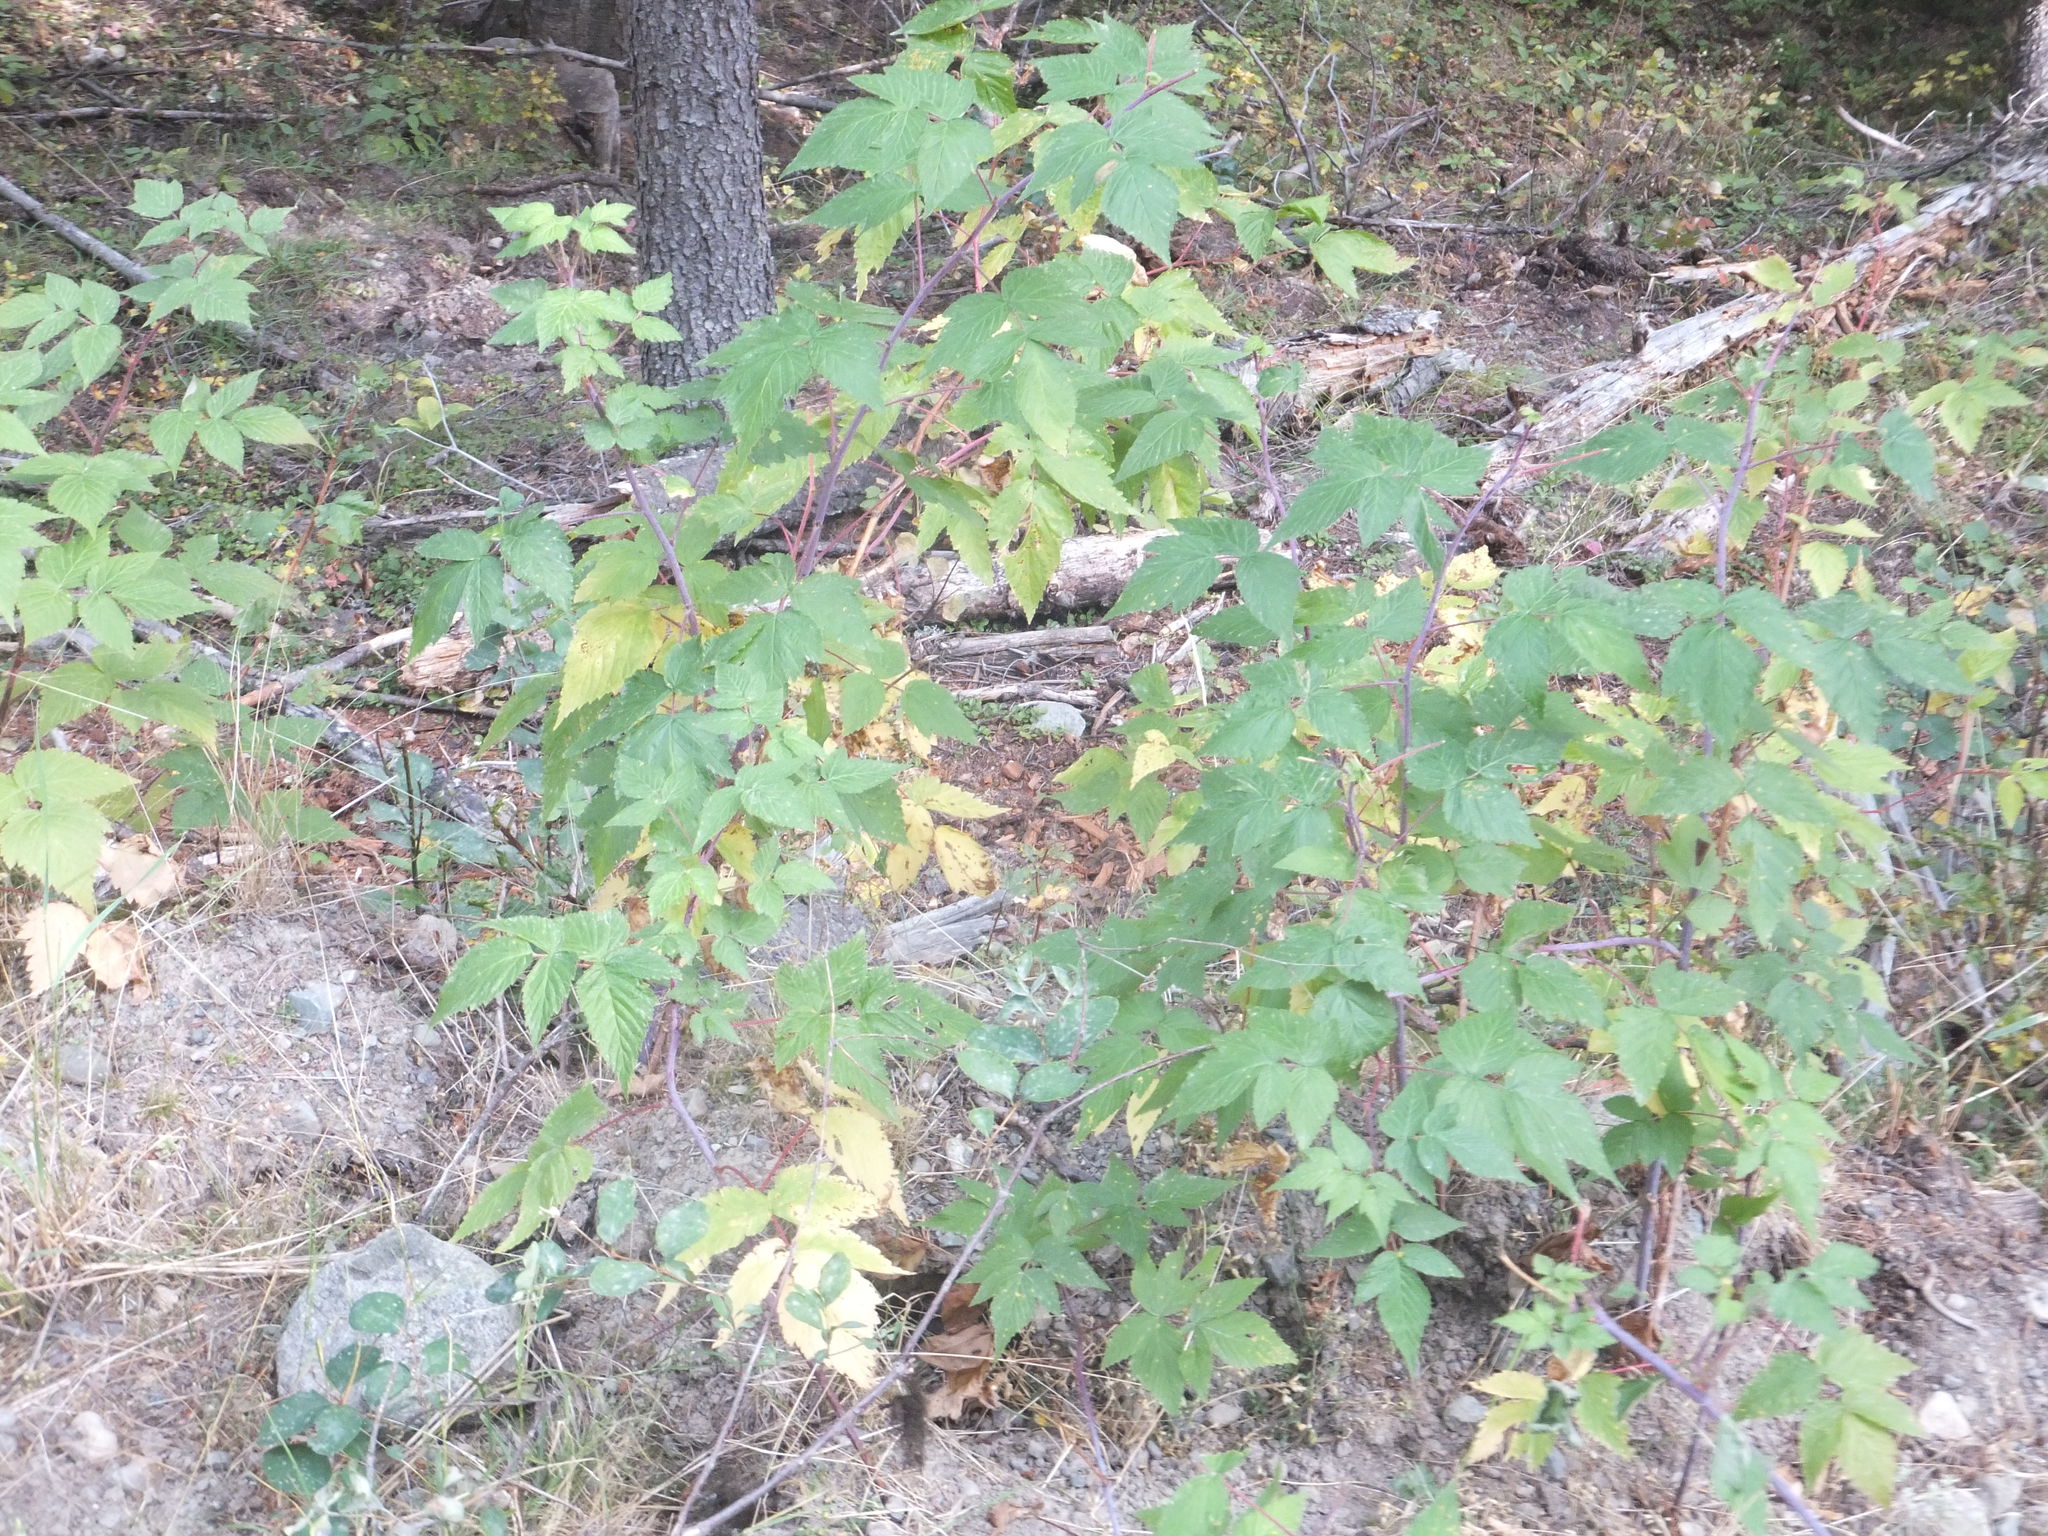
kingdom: Plantae
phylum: Tracheophyta
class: Magnoliopsida
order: Rosales
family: Rosaceae
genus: Rubus
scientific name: Rubus idaeus
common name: Raspberry
